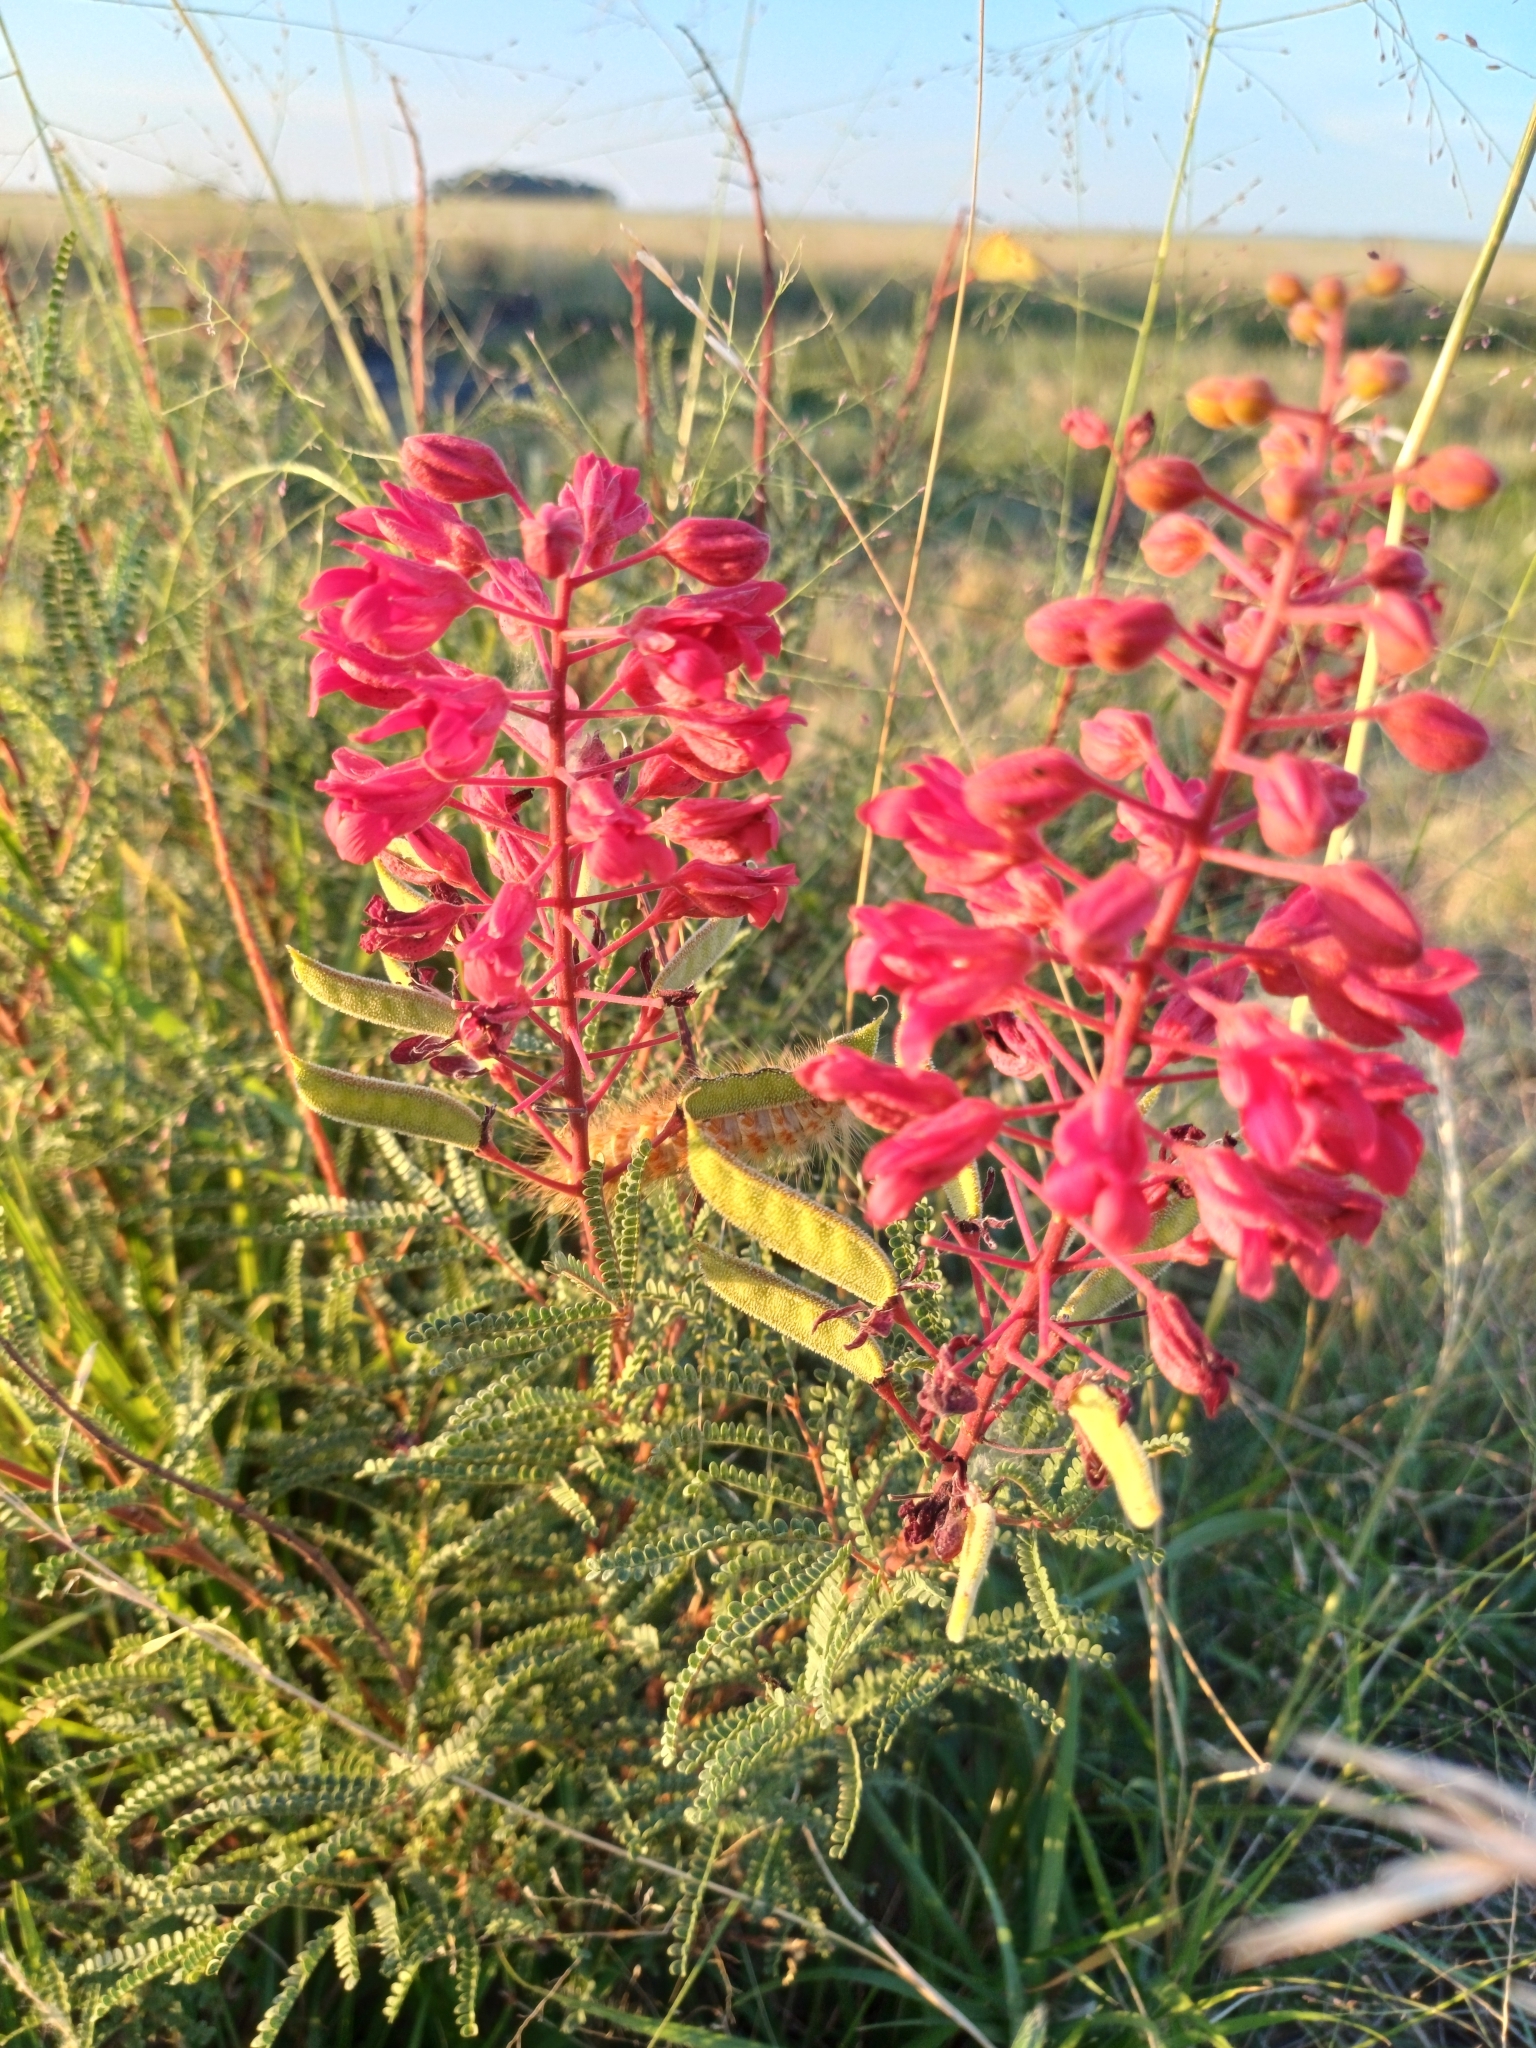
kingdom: Plantae
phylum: Tracheophyta
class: Magnoliopsida
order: Fabales
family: Fabaceae
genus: Pomaria
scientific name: Pomaria rubicunda
